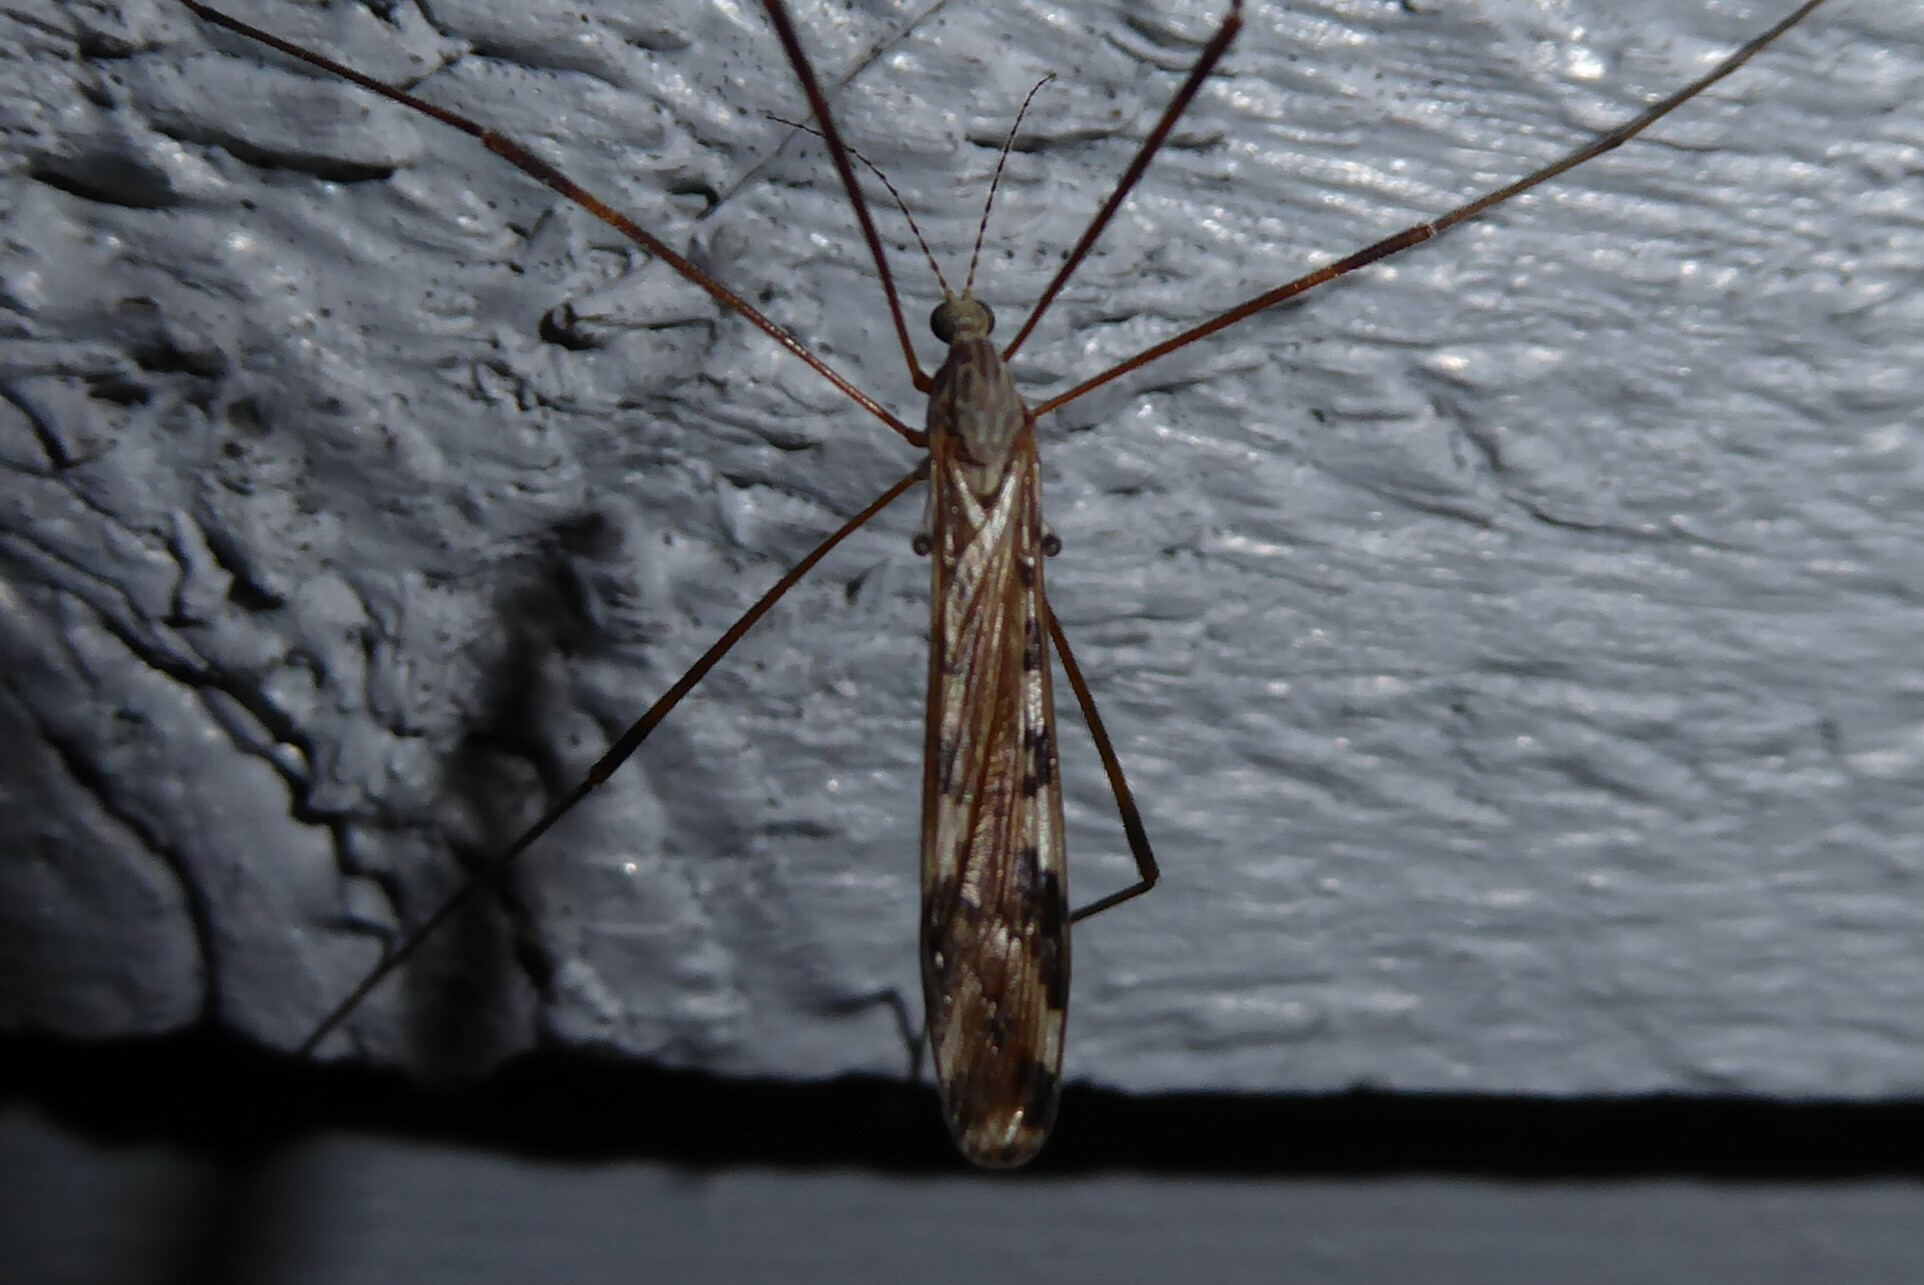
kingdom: Animalia
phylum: Arthropoda
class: Insecta
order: Diptera
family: Limoniidae
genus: Paralimnophila
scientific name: Paralimnophila skusei
